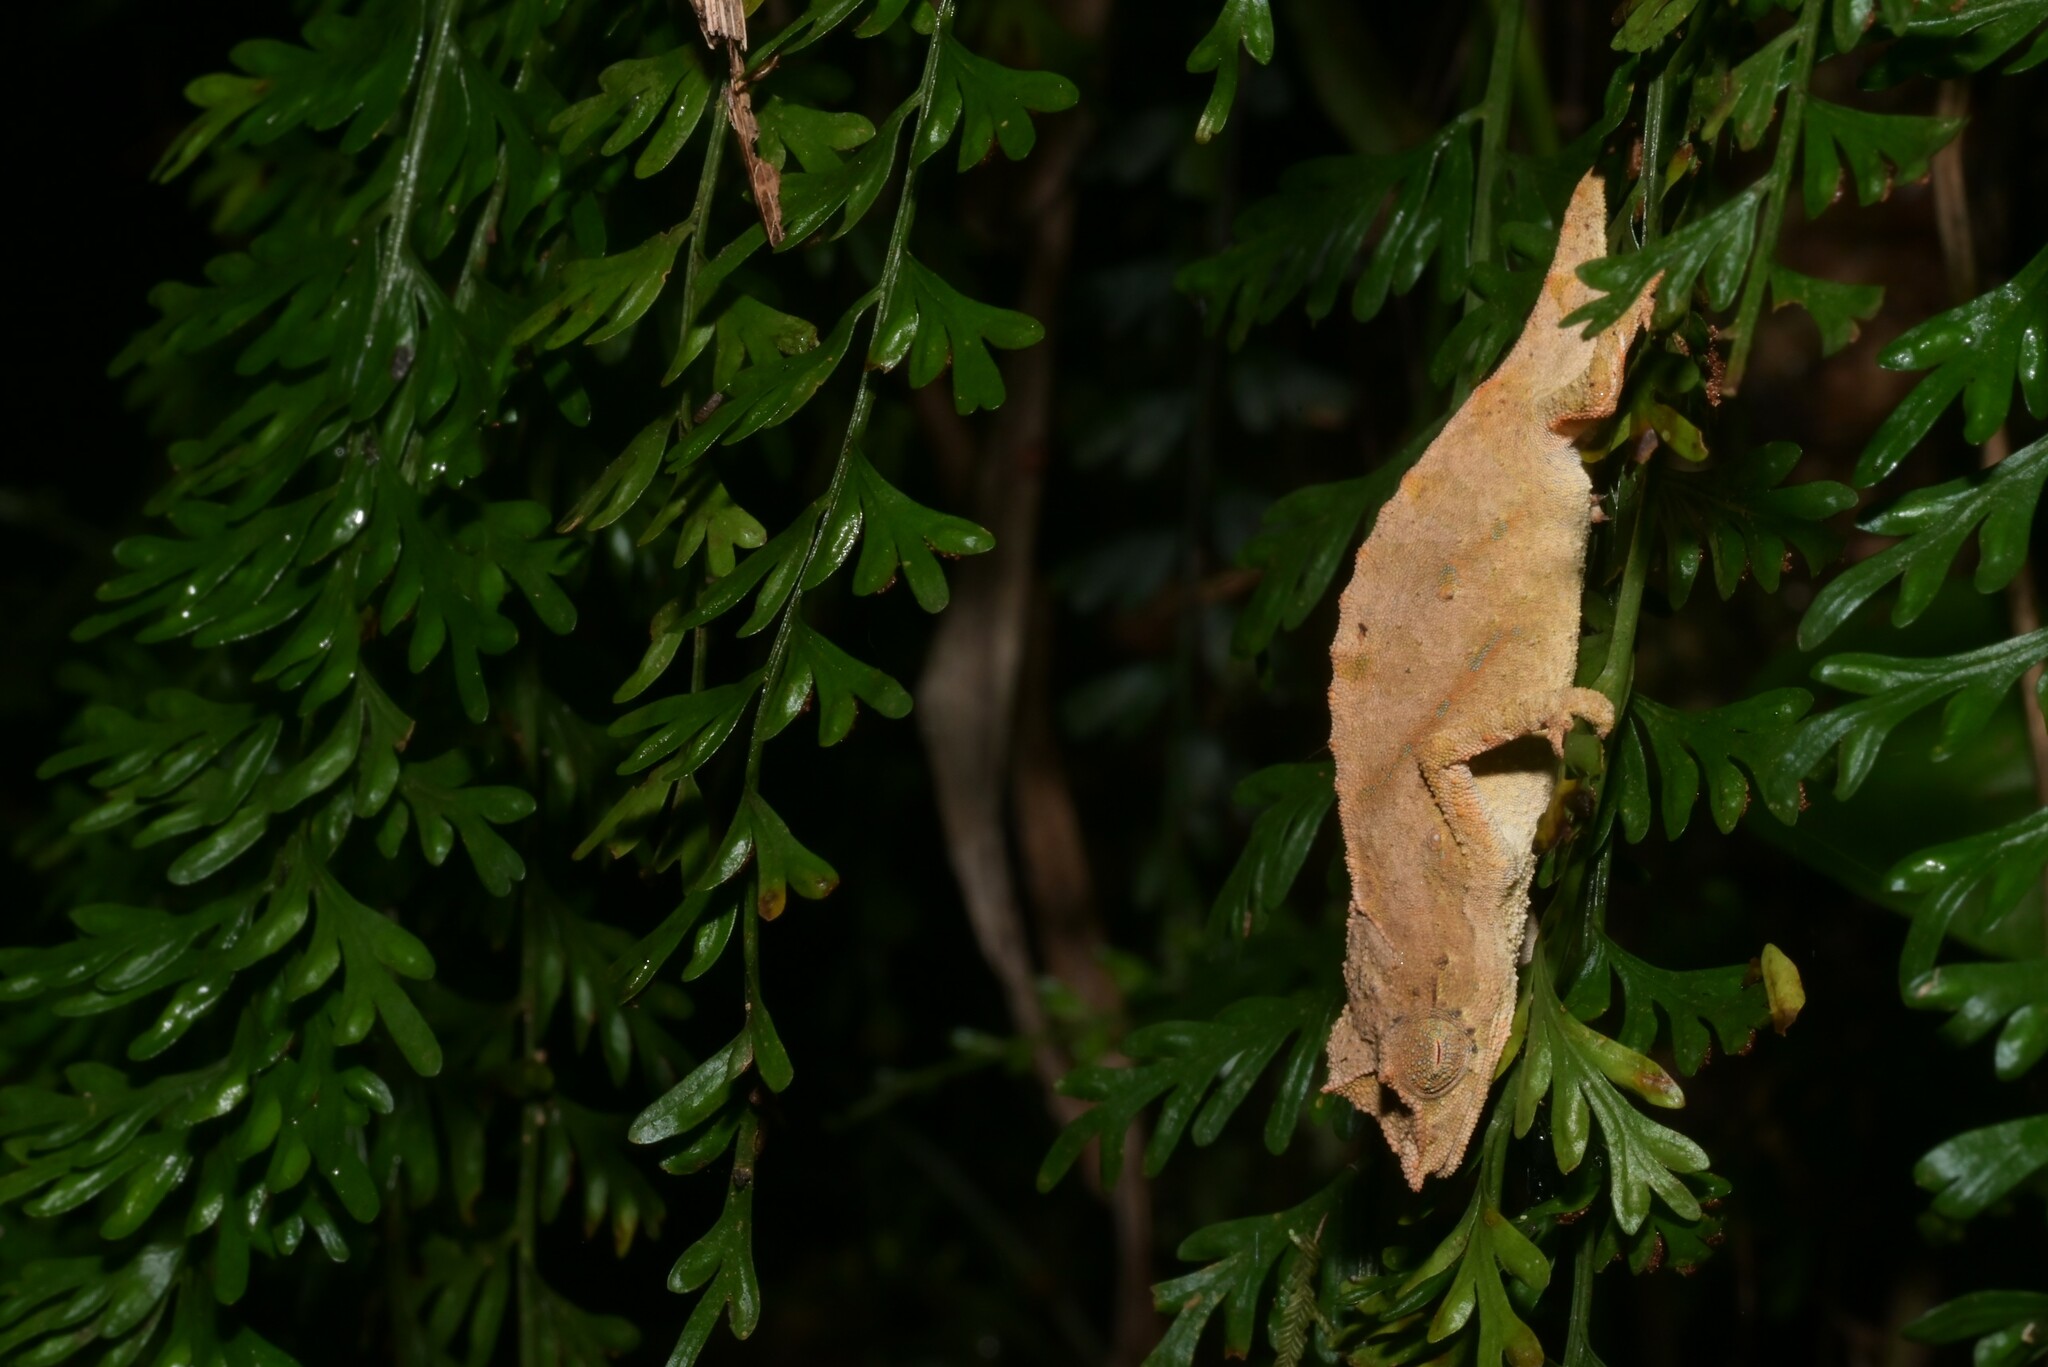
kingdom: Animalia
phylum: Chordata
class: Squamata
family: Chamaeleonidae
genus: Rhampholeon
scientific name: Rhampholeon nchisiensis
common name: South african stumptail chameleon
